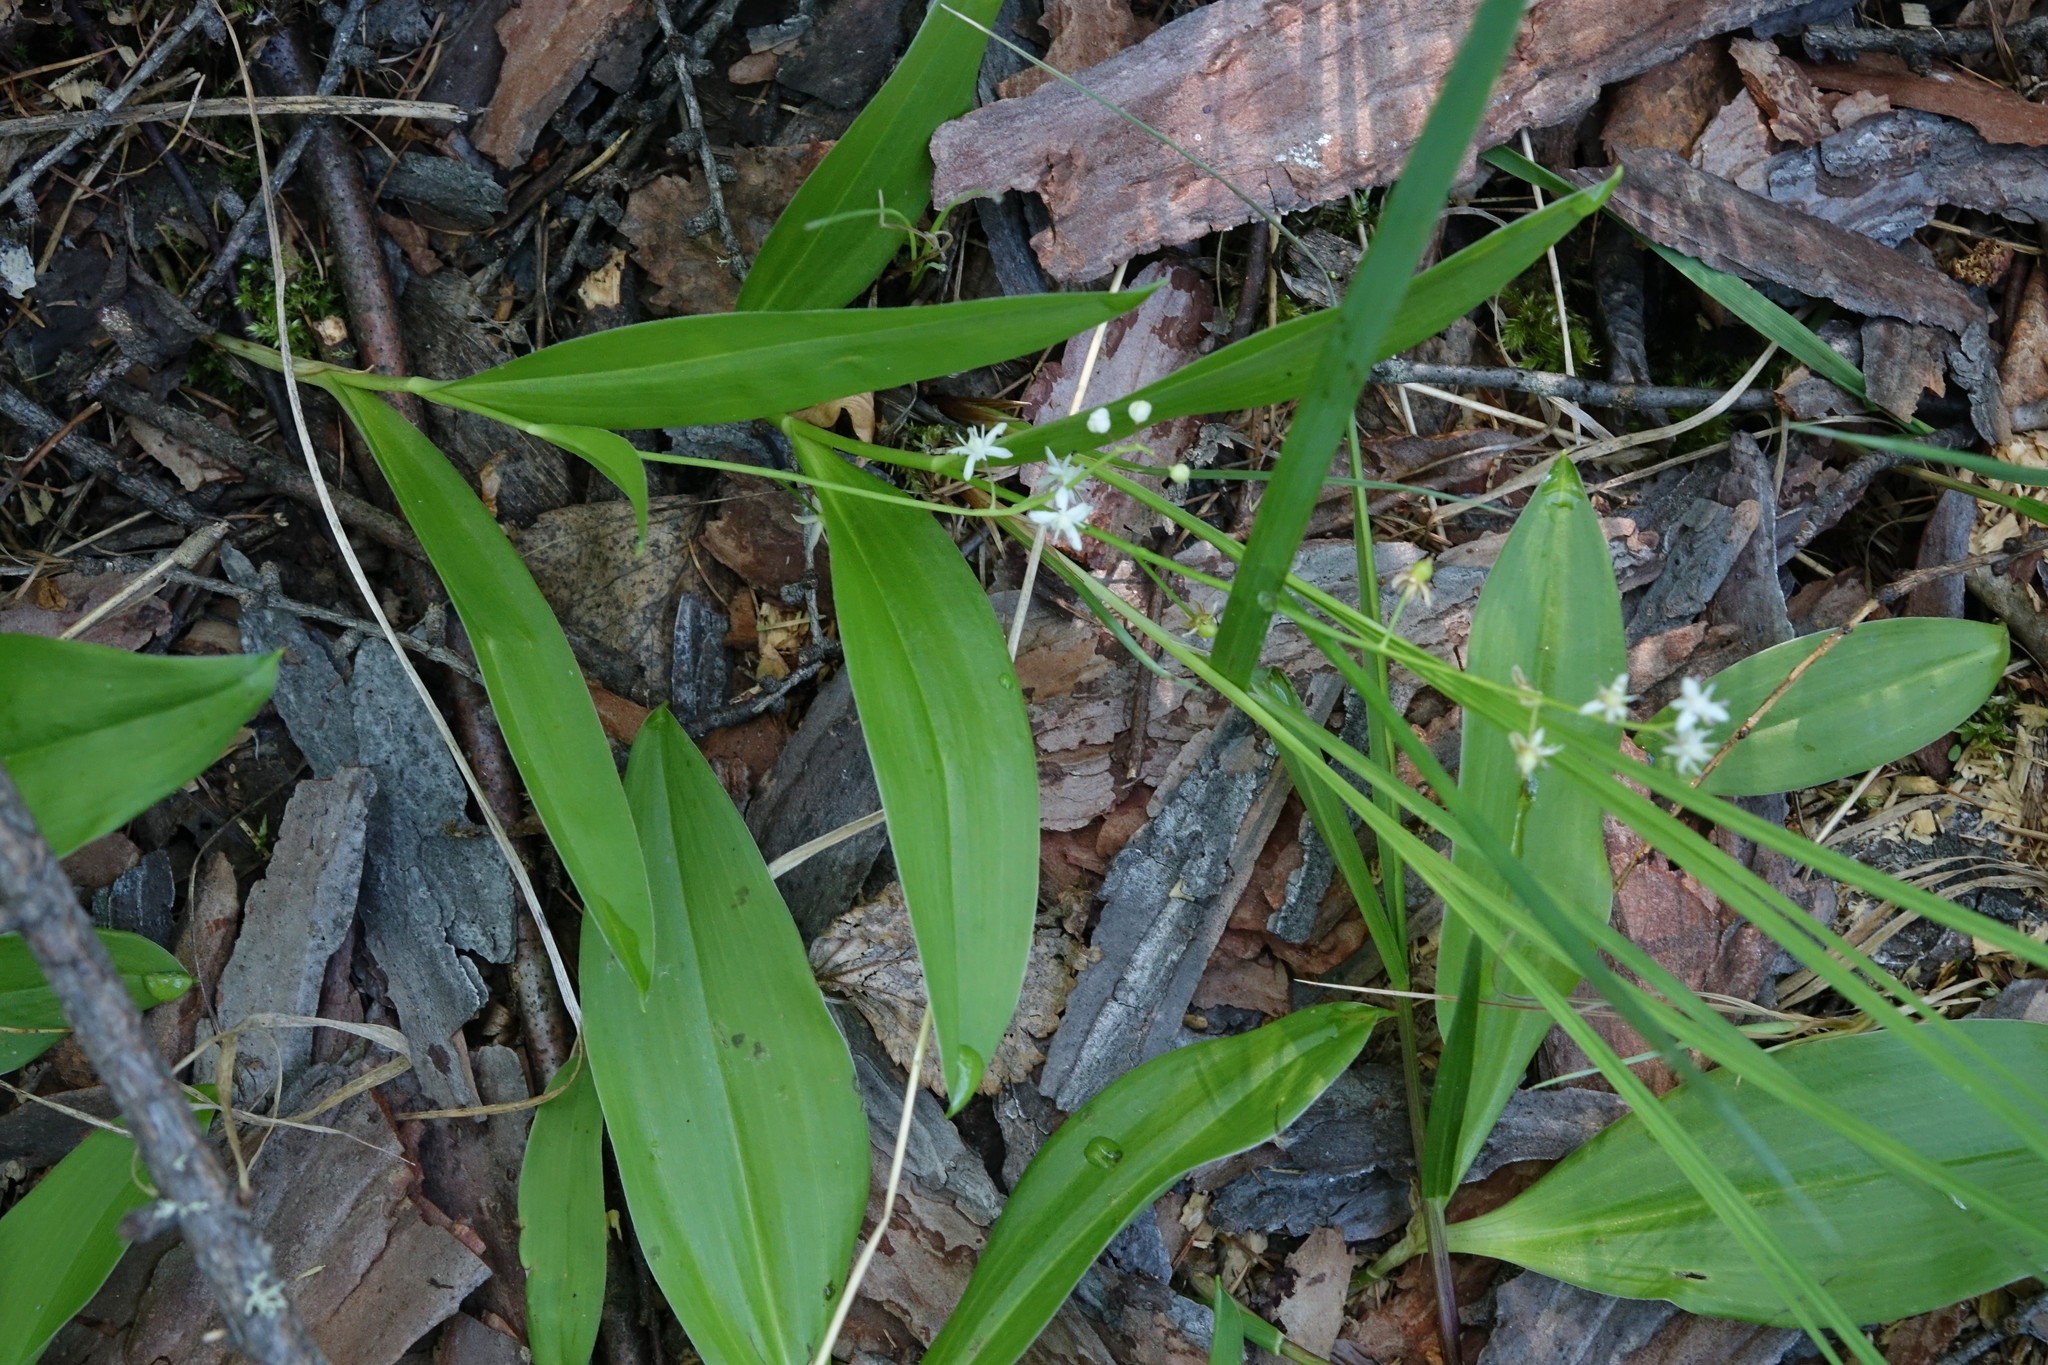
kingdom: Plantae
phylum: Tracheophyta
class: Liliopsida
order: Asparagales
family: Asparagaceae
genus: Maianthemum
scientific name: Maianthemum trifolium
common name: Swamp false solomon's seal
